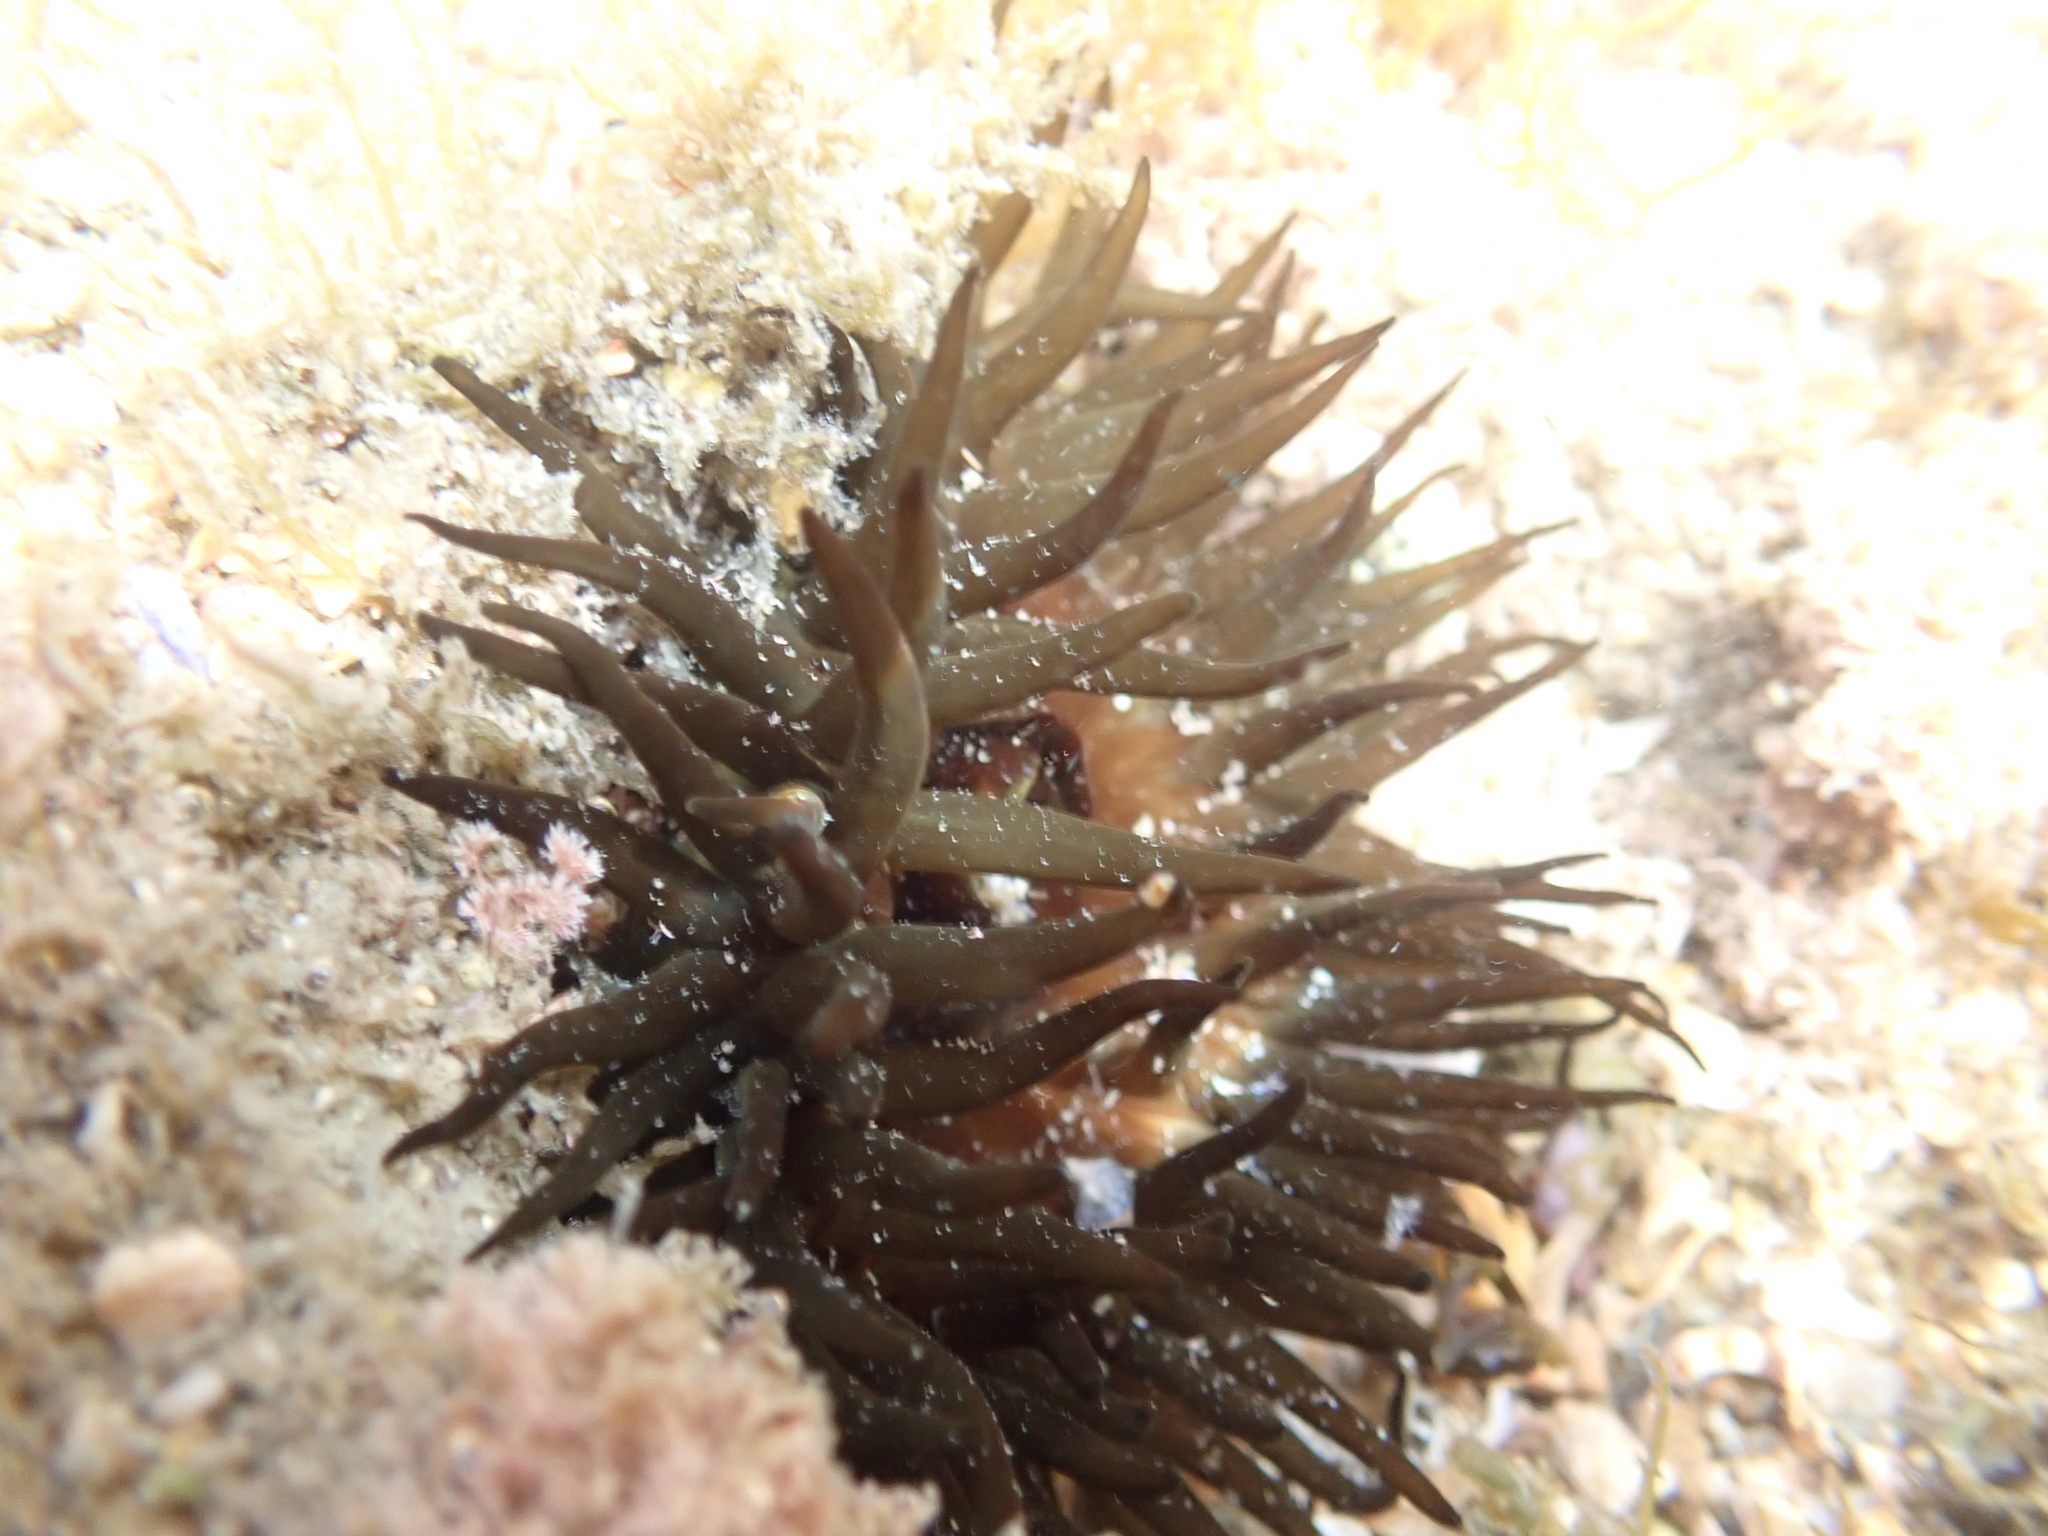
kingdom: Animalia
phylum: Cnidaria
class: Anthozoa
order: Actiniaria
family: Actiniidae
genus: Aulactinia
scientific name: Aulactinia veratra
